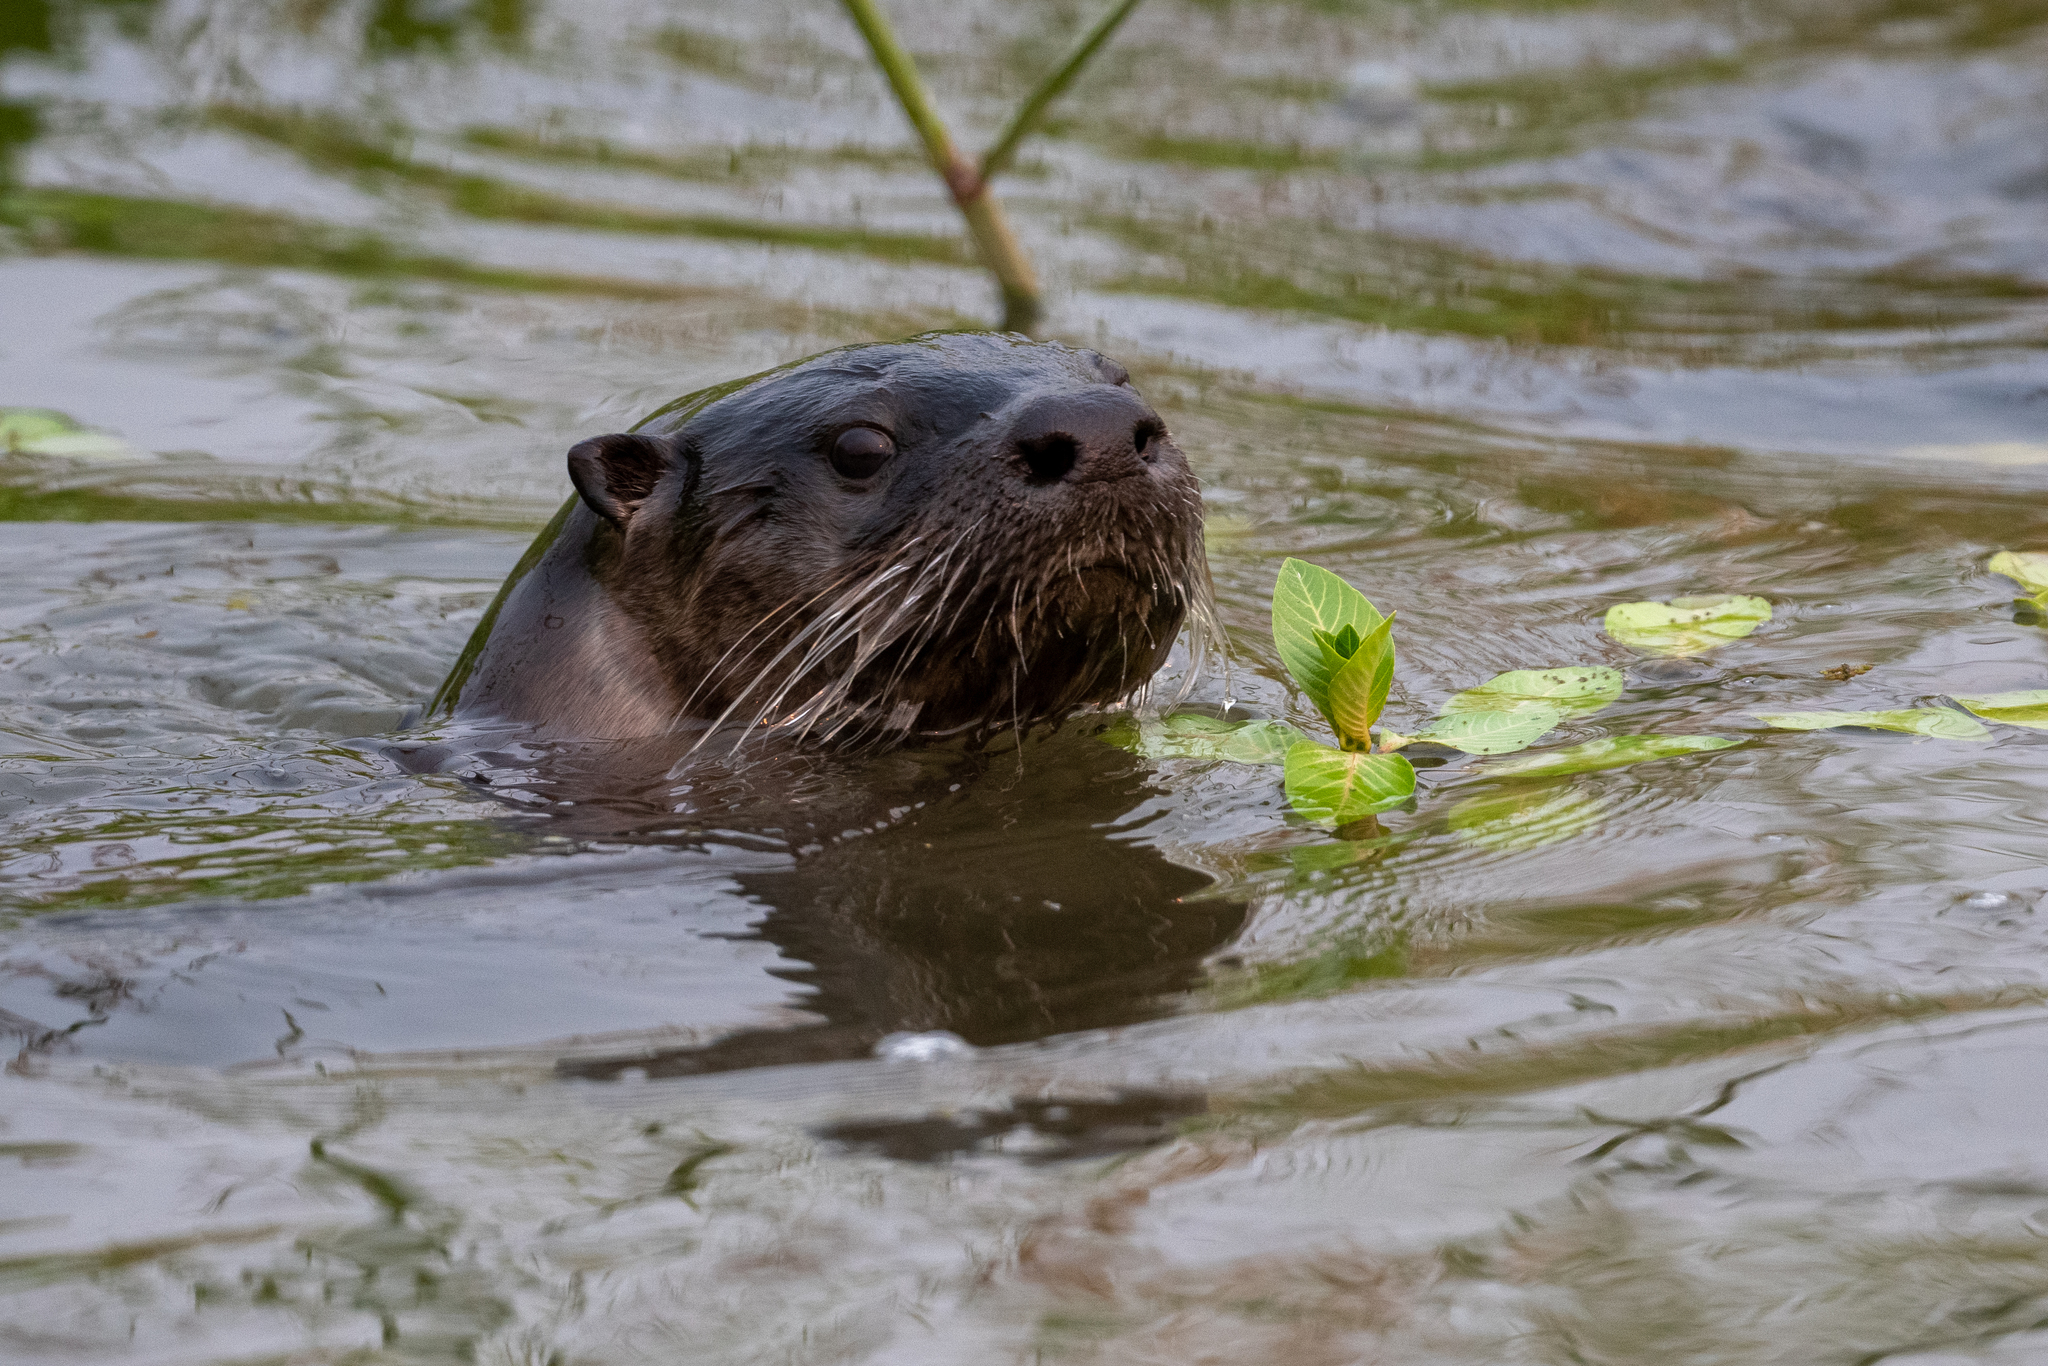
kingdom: Animalia
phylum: Chordata
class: Mammalia
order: Carnivora
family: Mustelidae
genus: Lontra
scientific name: Lontra canadensis
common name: North american river otter
